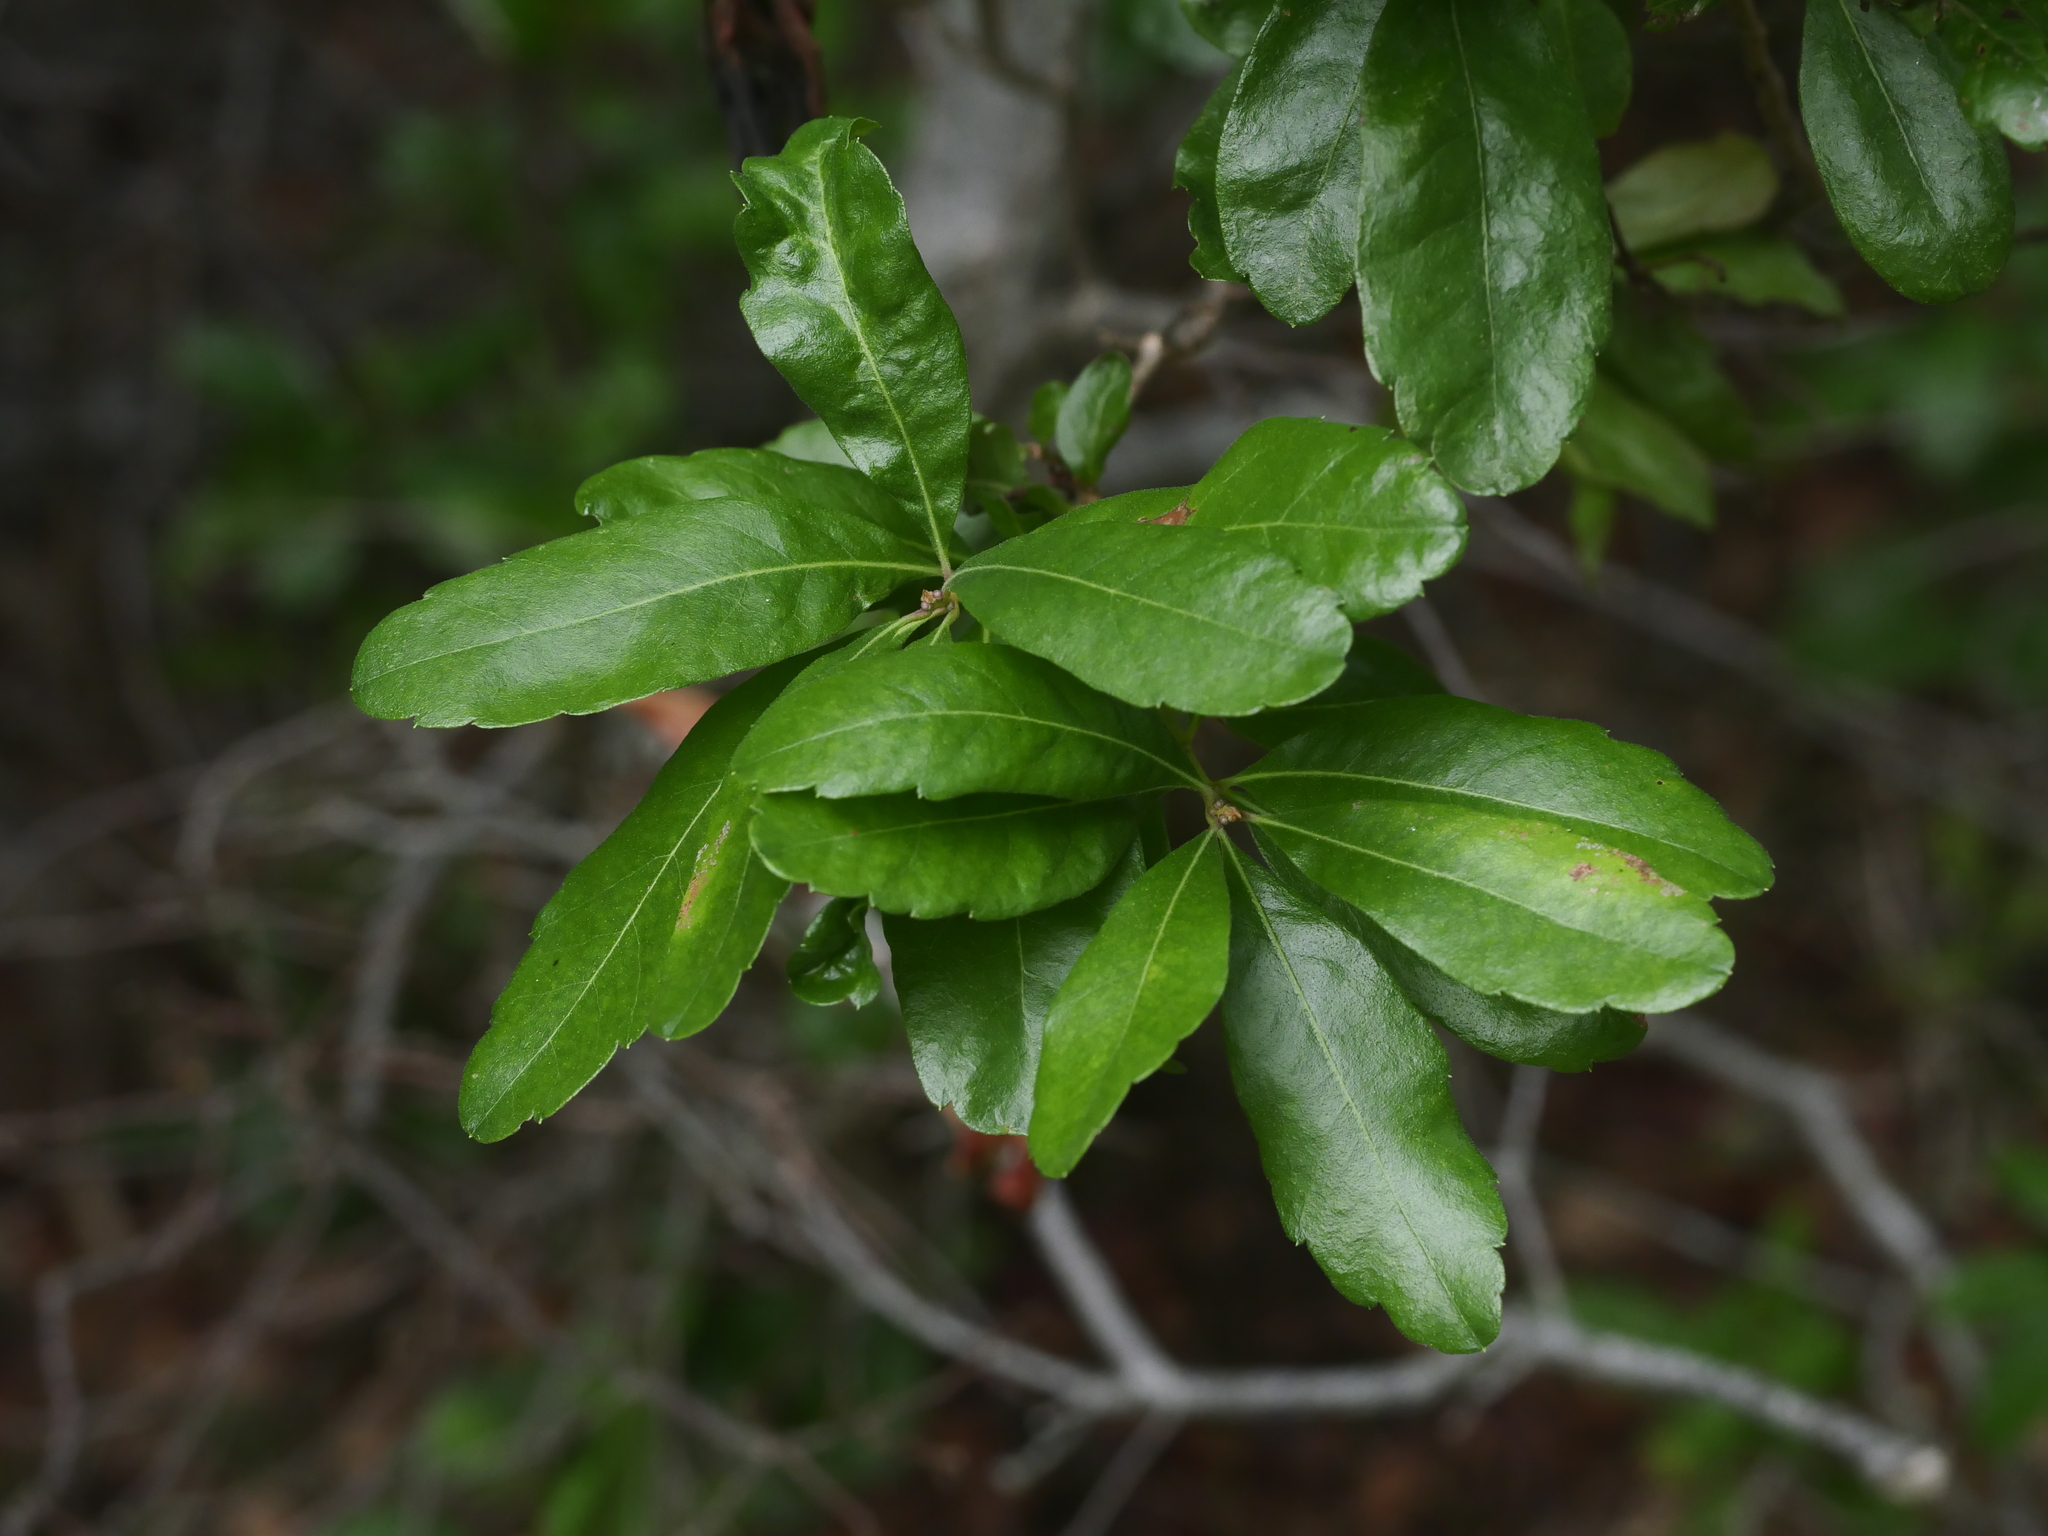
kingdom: Plantae
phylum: Tracheophyta
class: Magnoliopsida
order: Fagales
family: Myricaceae
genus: Morella
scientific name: Morella pensylvanica
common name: Northern bayberry
